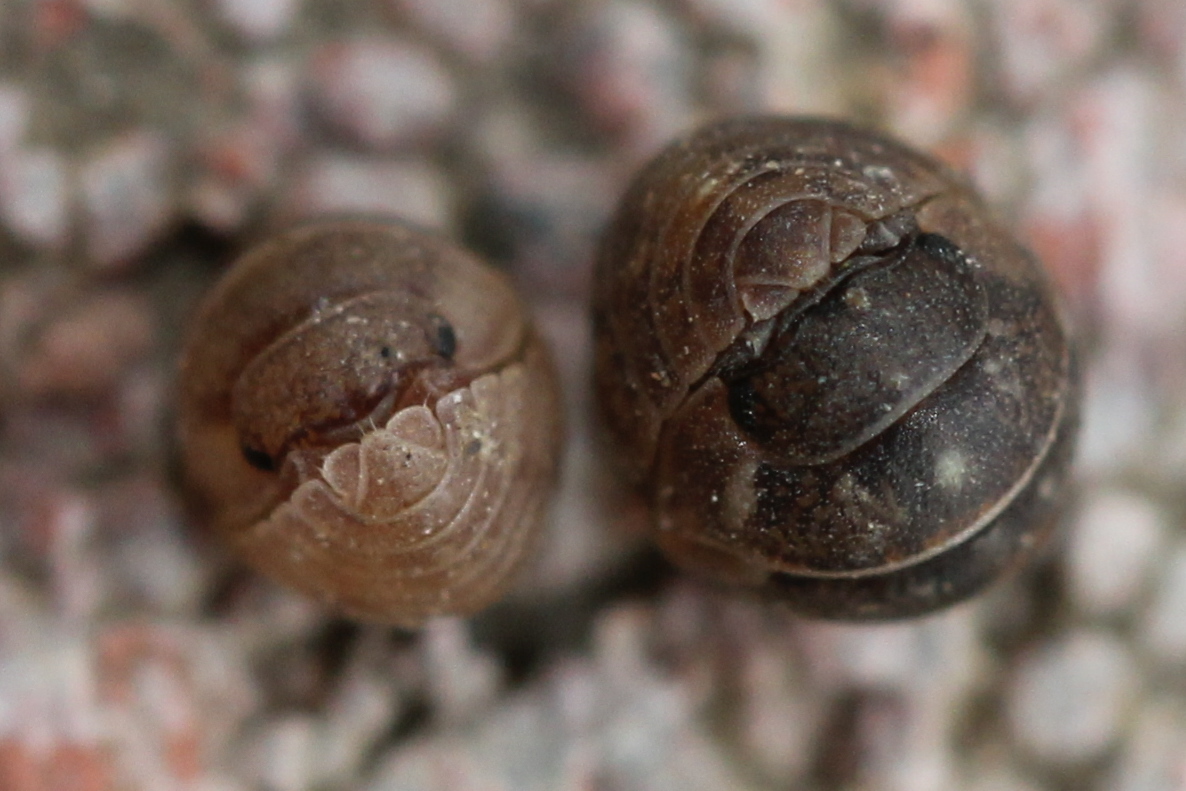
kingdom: Animalia
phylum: Arthropoda
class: Malacostraca
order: Isopoda
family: Armadillidiidae
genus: Armadillidium
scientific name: Armadillidium nasatum
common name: Isopod
